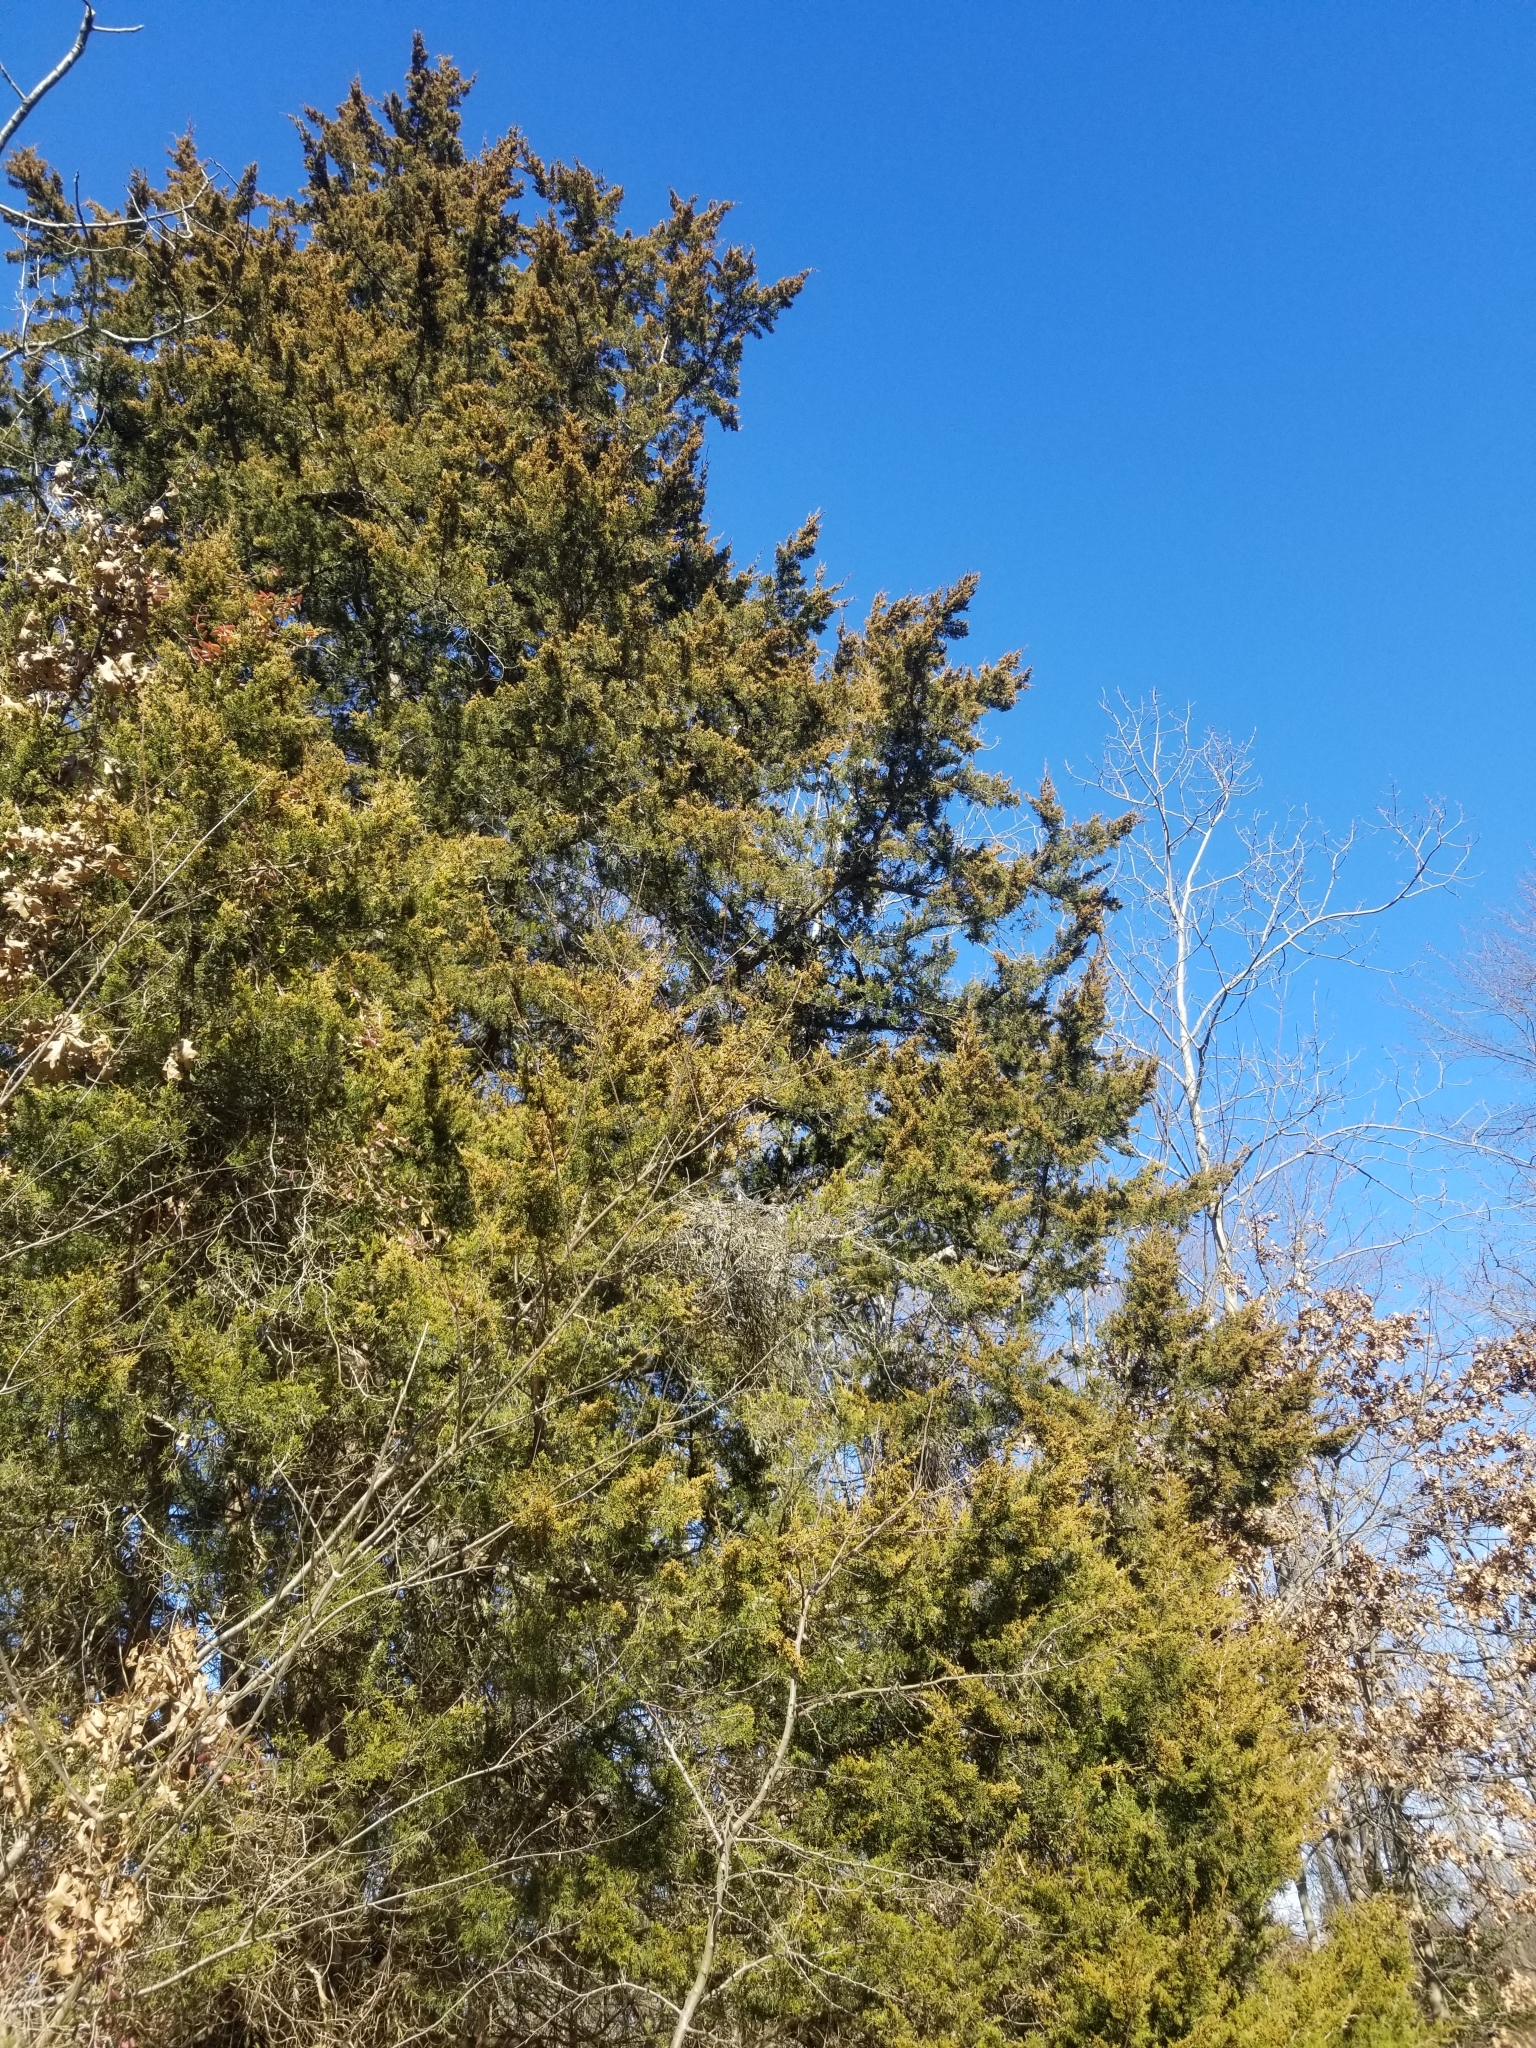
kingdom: Plantae
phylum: Tracheophyta
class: Pinopsida
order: Pinales
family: Cupressaceae
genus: Juniperus
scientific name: Juniperus virginiana
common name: Red juniper
